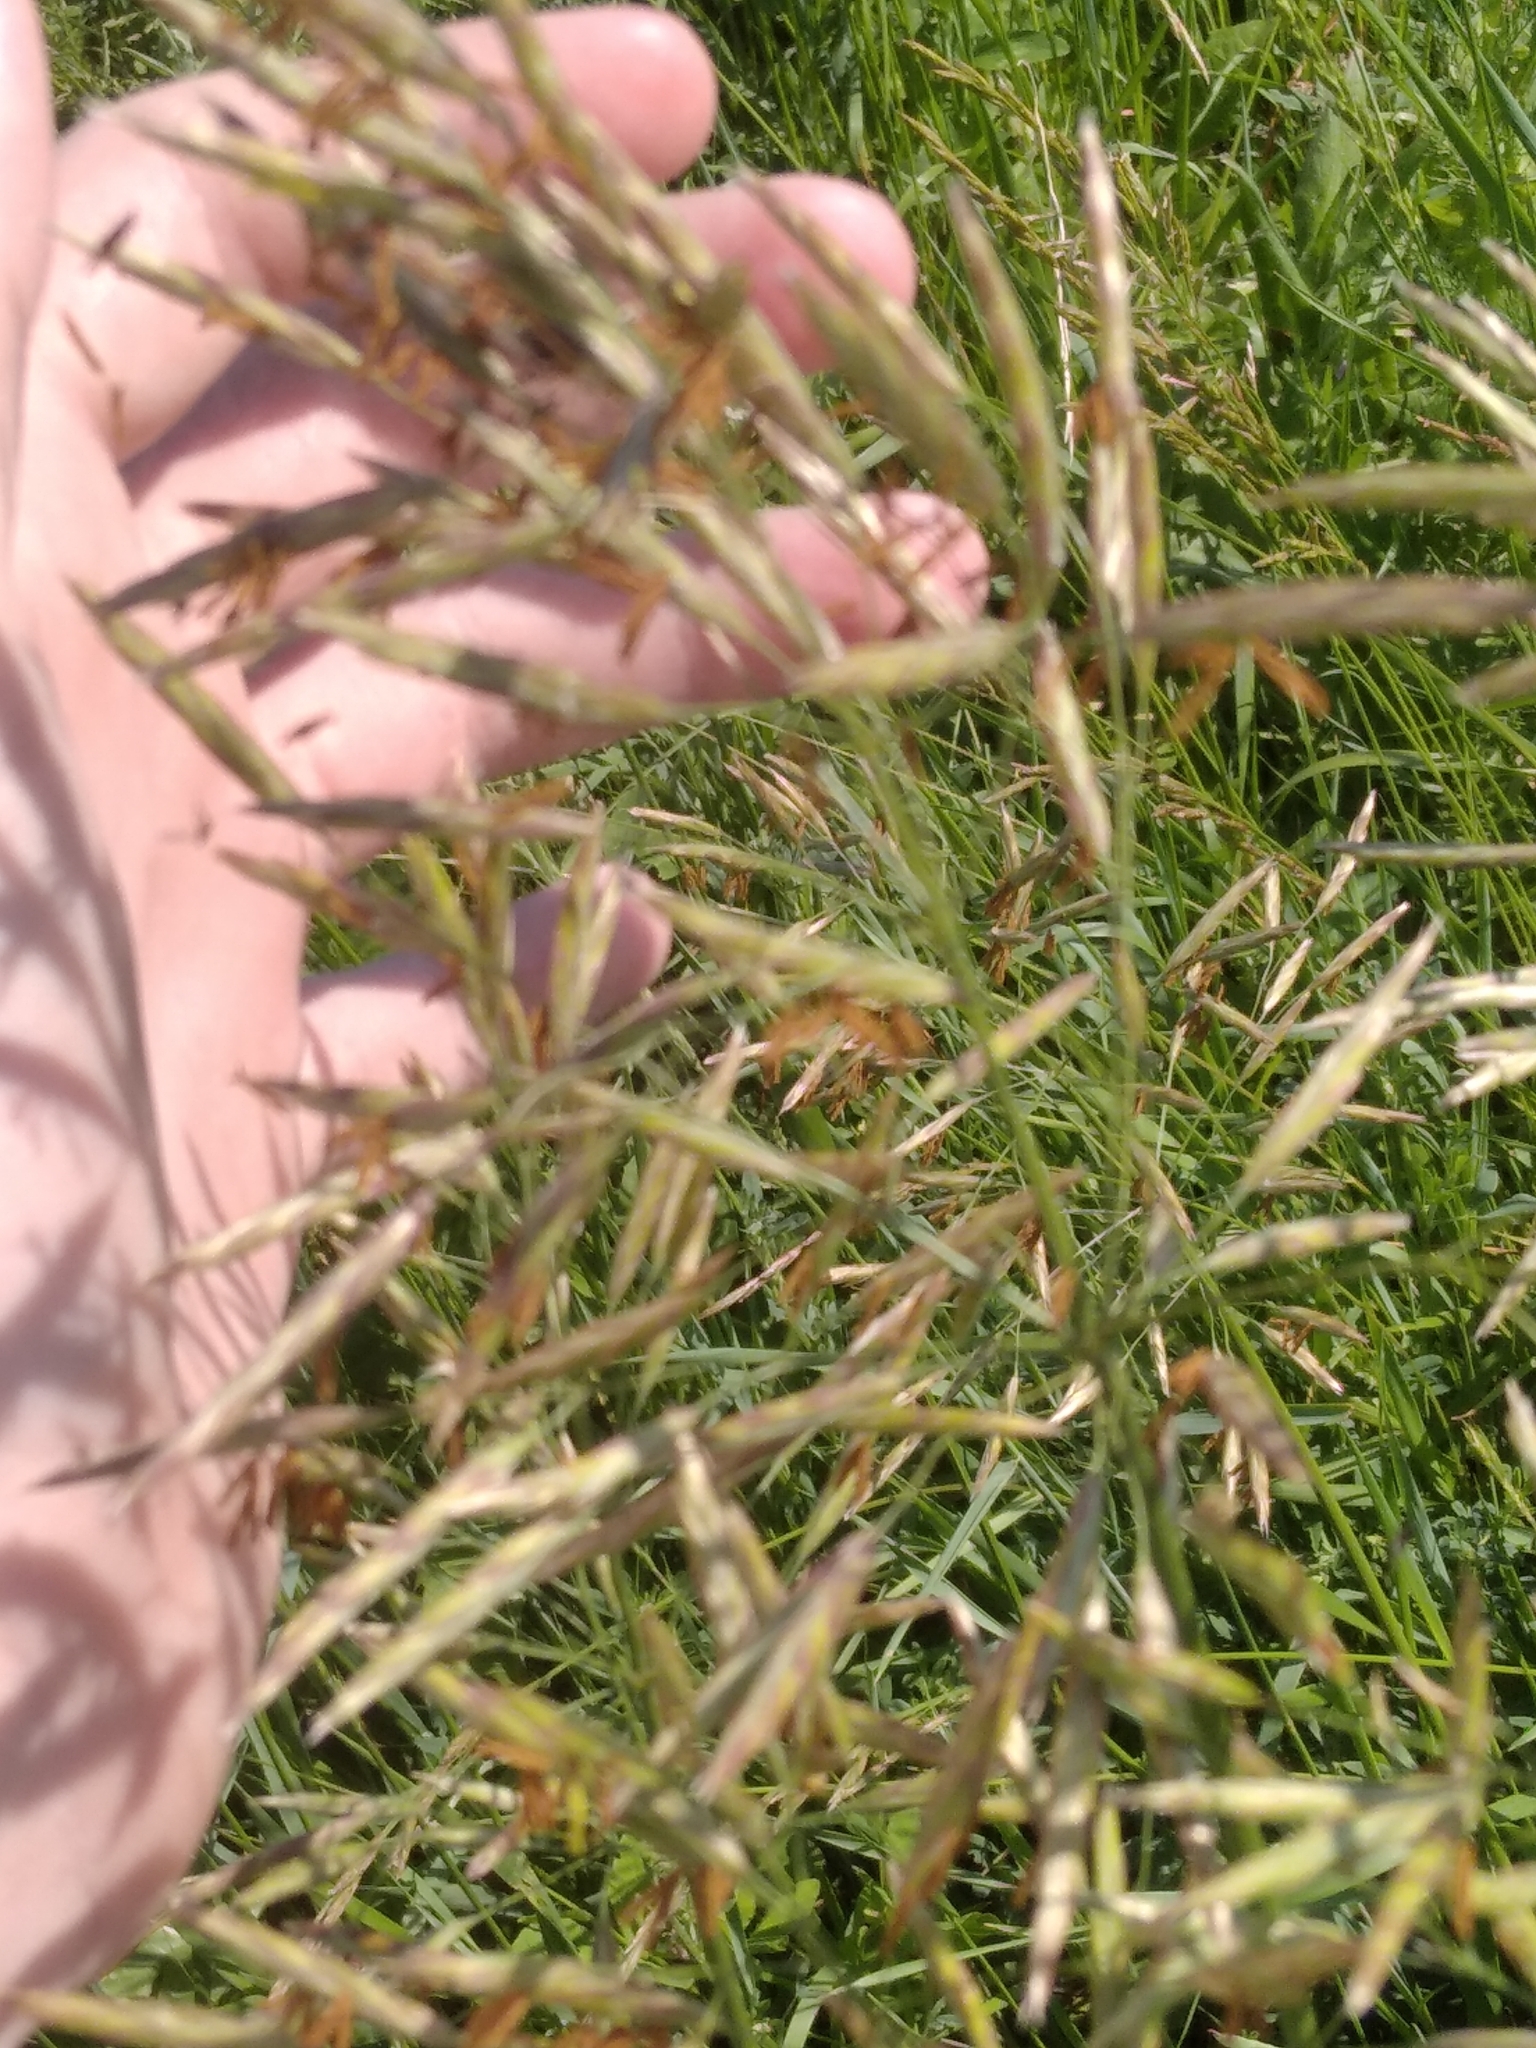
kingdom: Plantae
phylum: Tracheophyta
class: Liliopsida
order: Poales
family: Poaceae
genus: Bromus
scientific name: Bromus inermis
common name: Smooth brome
